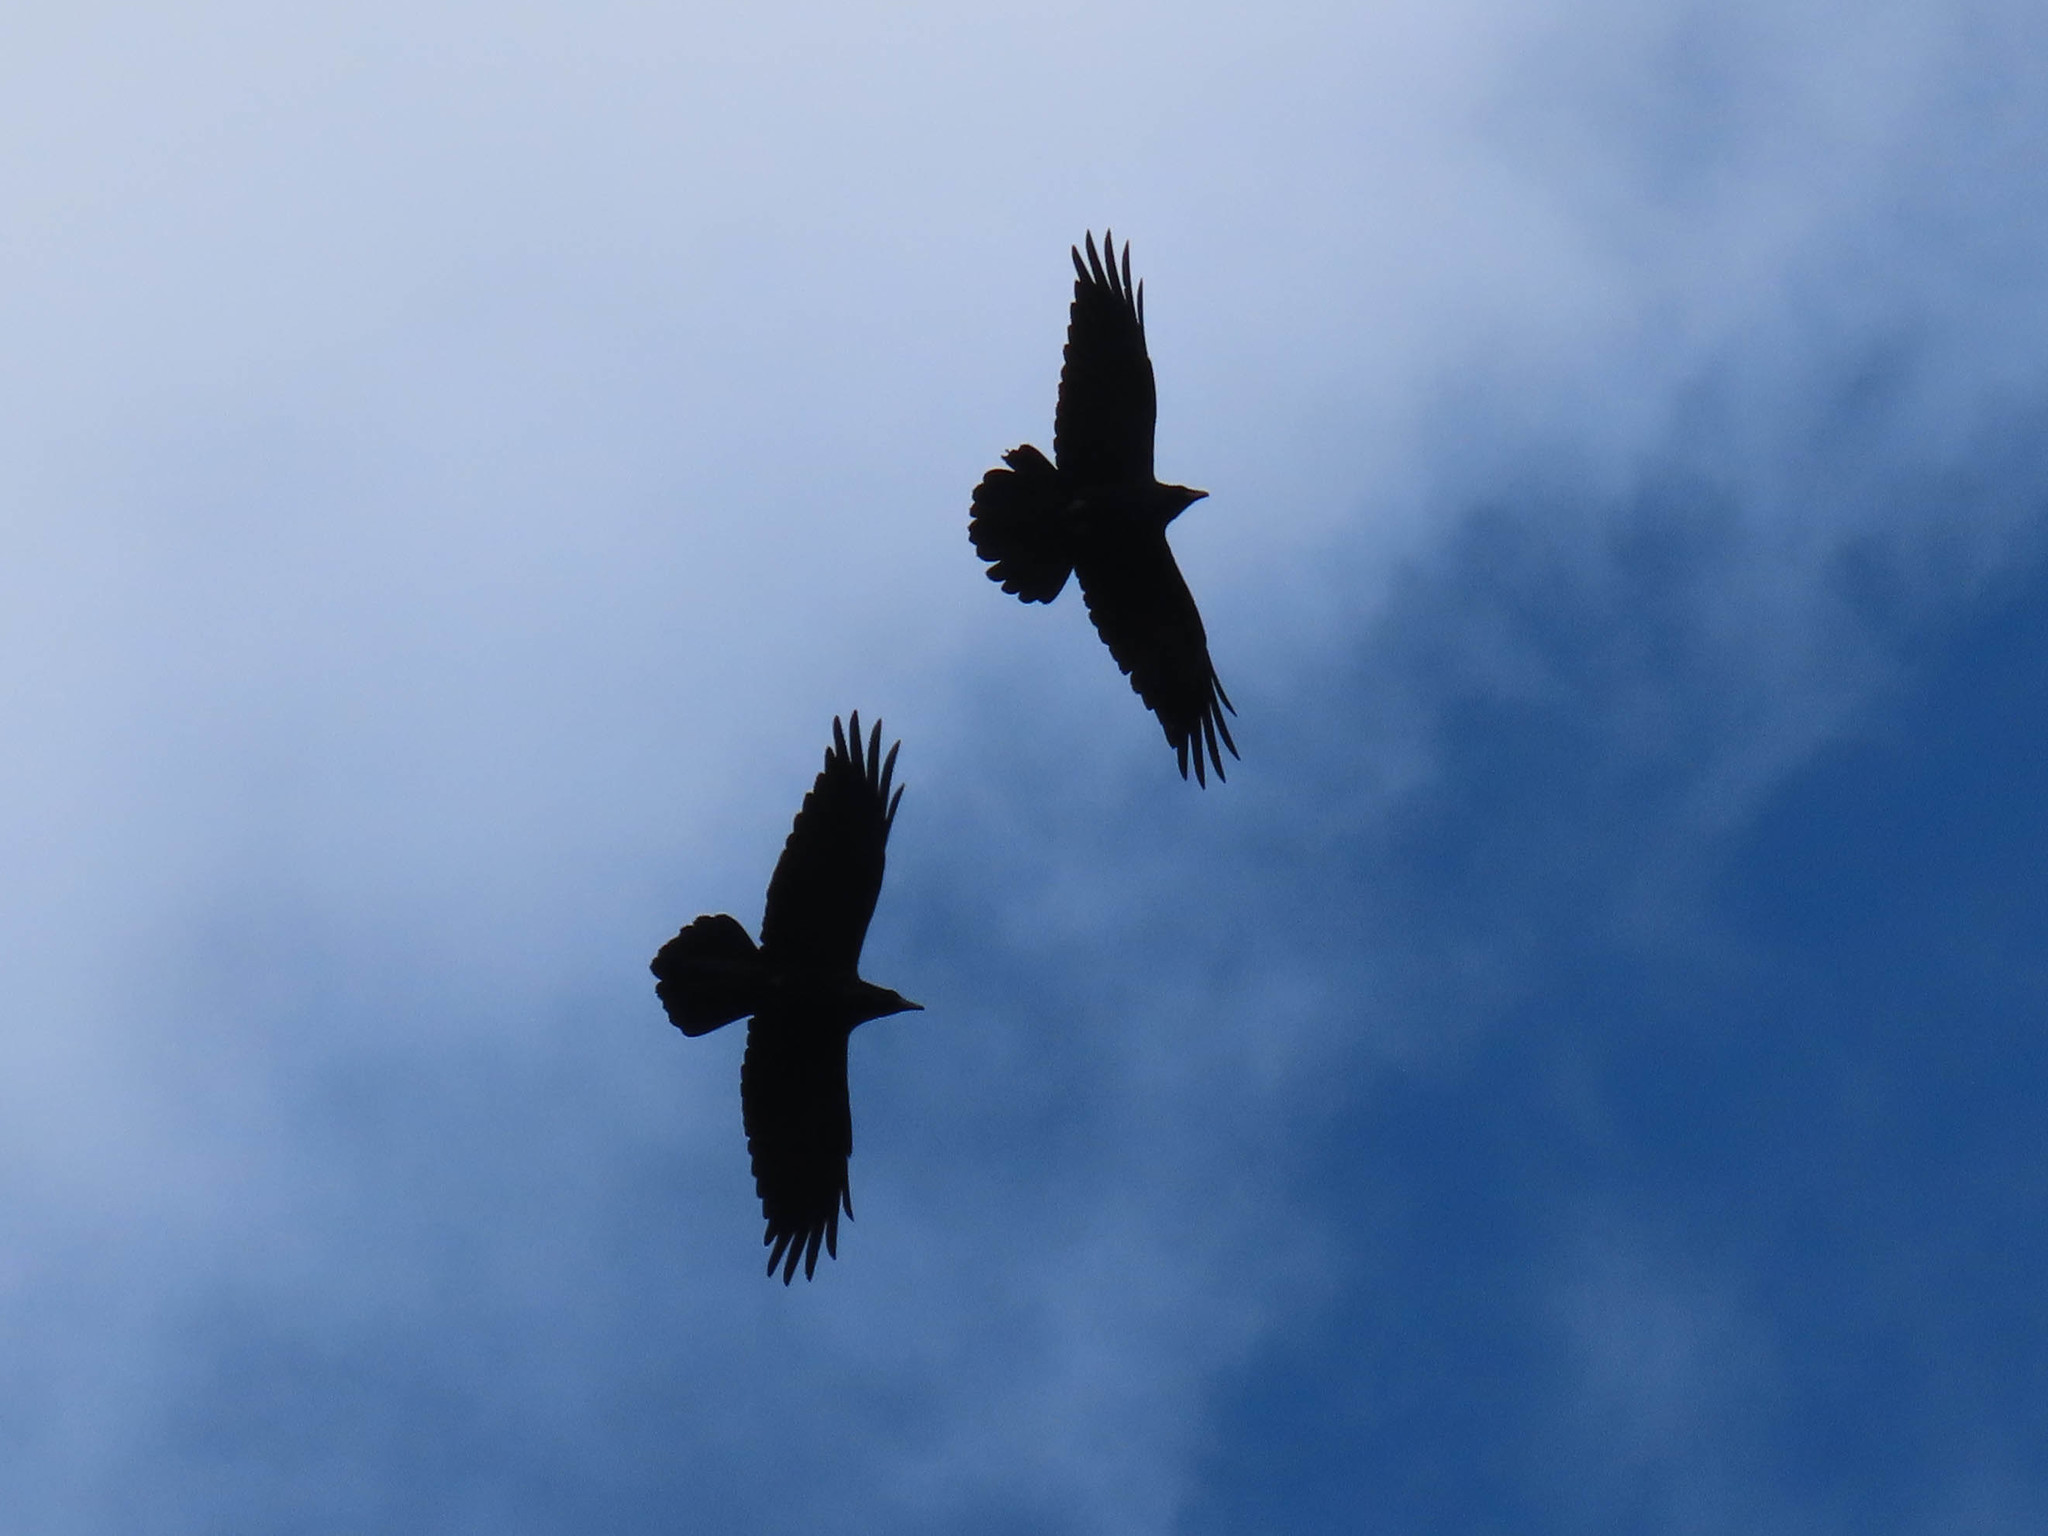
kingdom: Animalia
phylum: Chordata
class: Aves
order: Passeriformes
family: Corvidae
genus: Corvus
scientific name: Corvus corax
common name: Common raven
